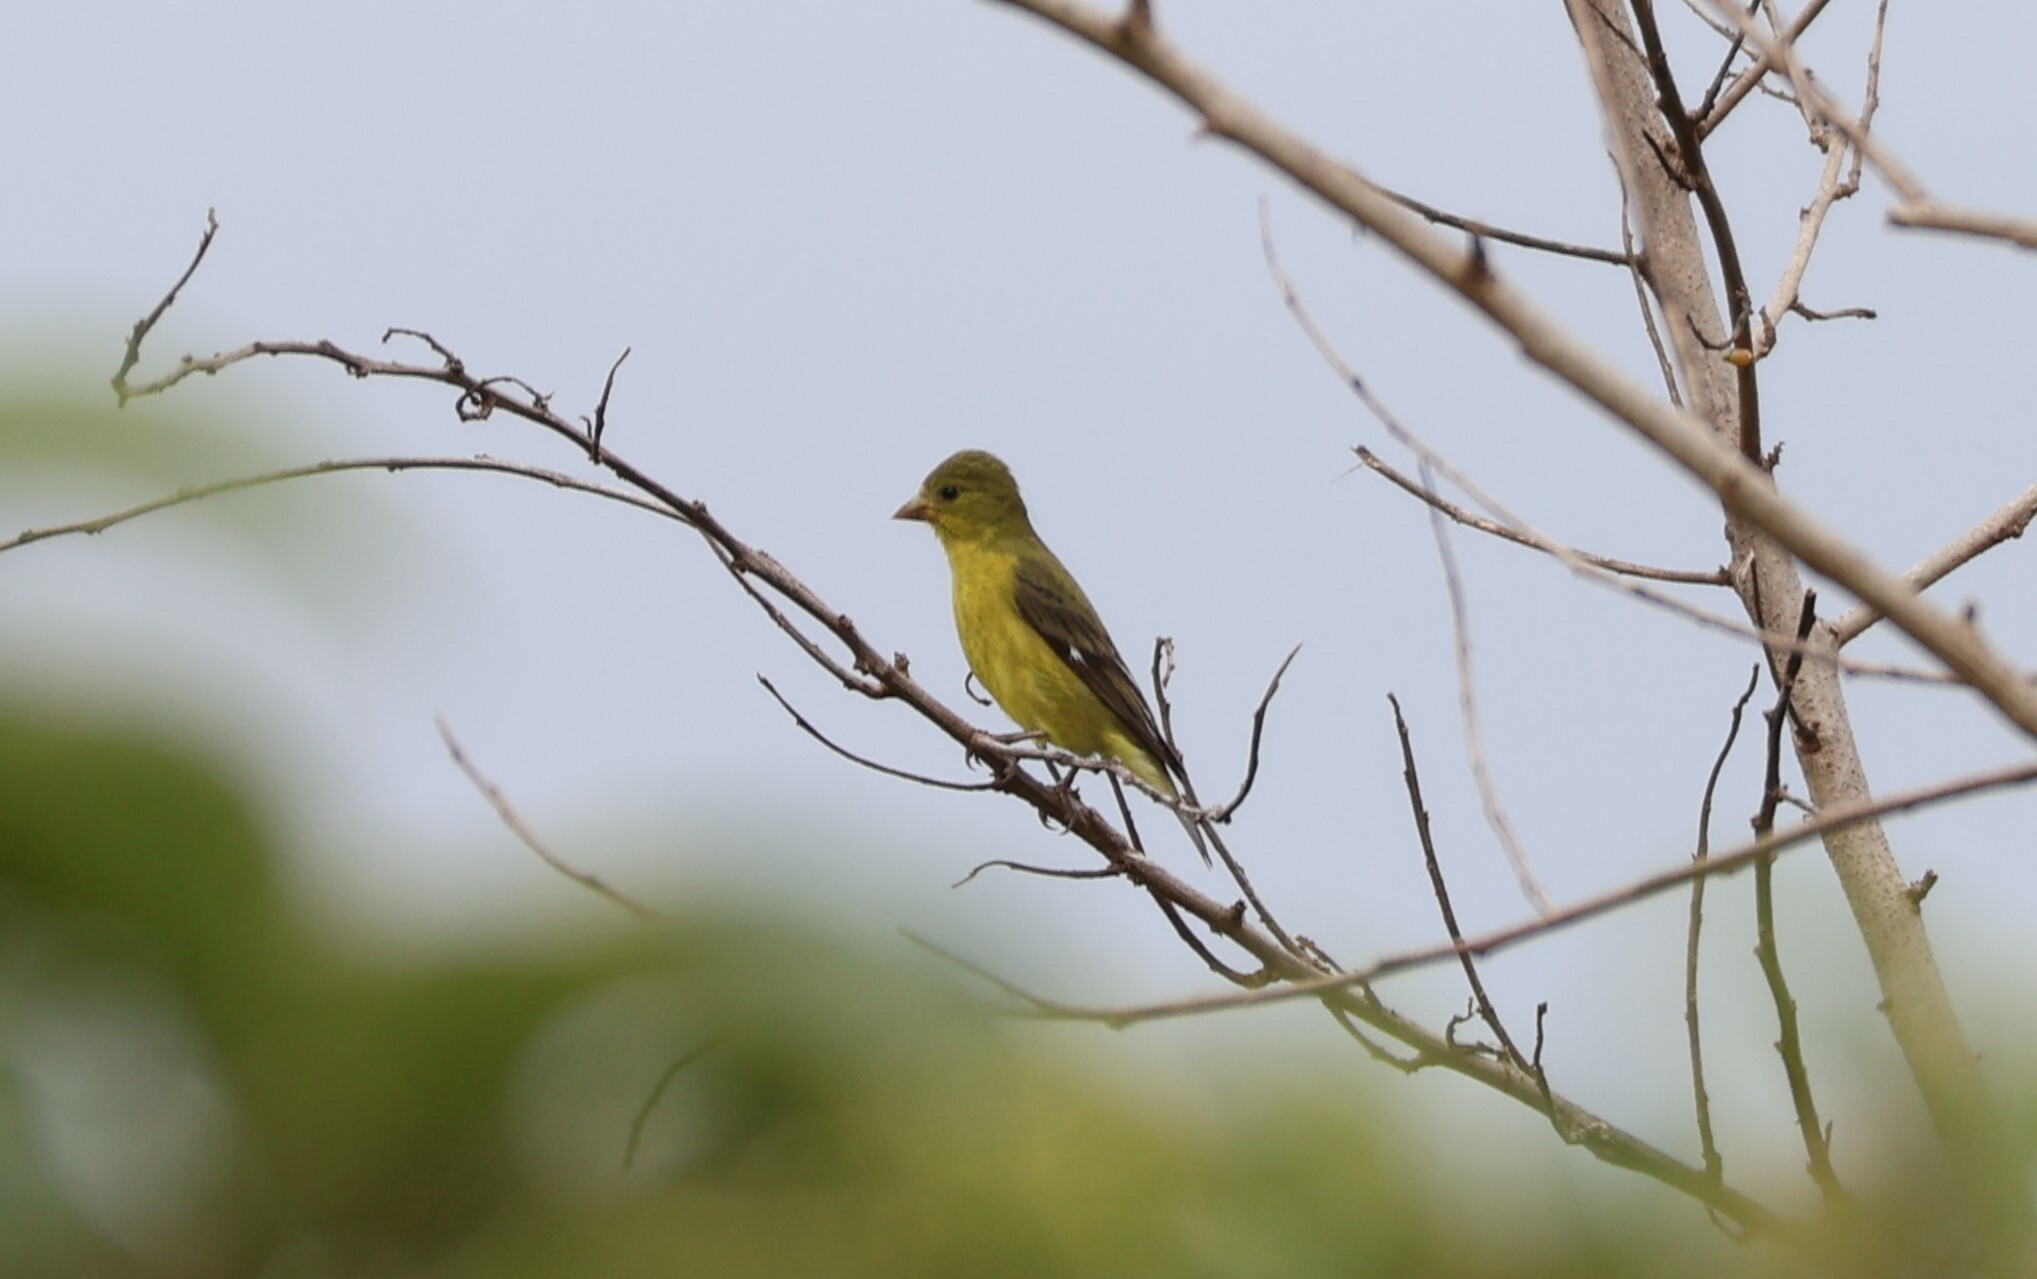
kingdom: Animalia
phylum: Chordata
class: Aves
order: Passeriformes
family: Fringillidae
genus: Spinus
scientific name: Spinus psaltria
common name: Lesser goldfinch
